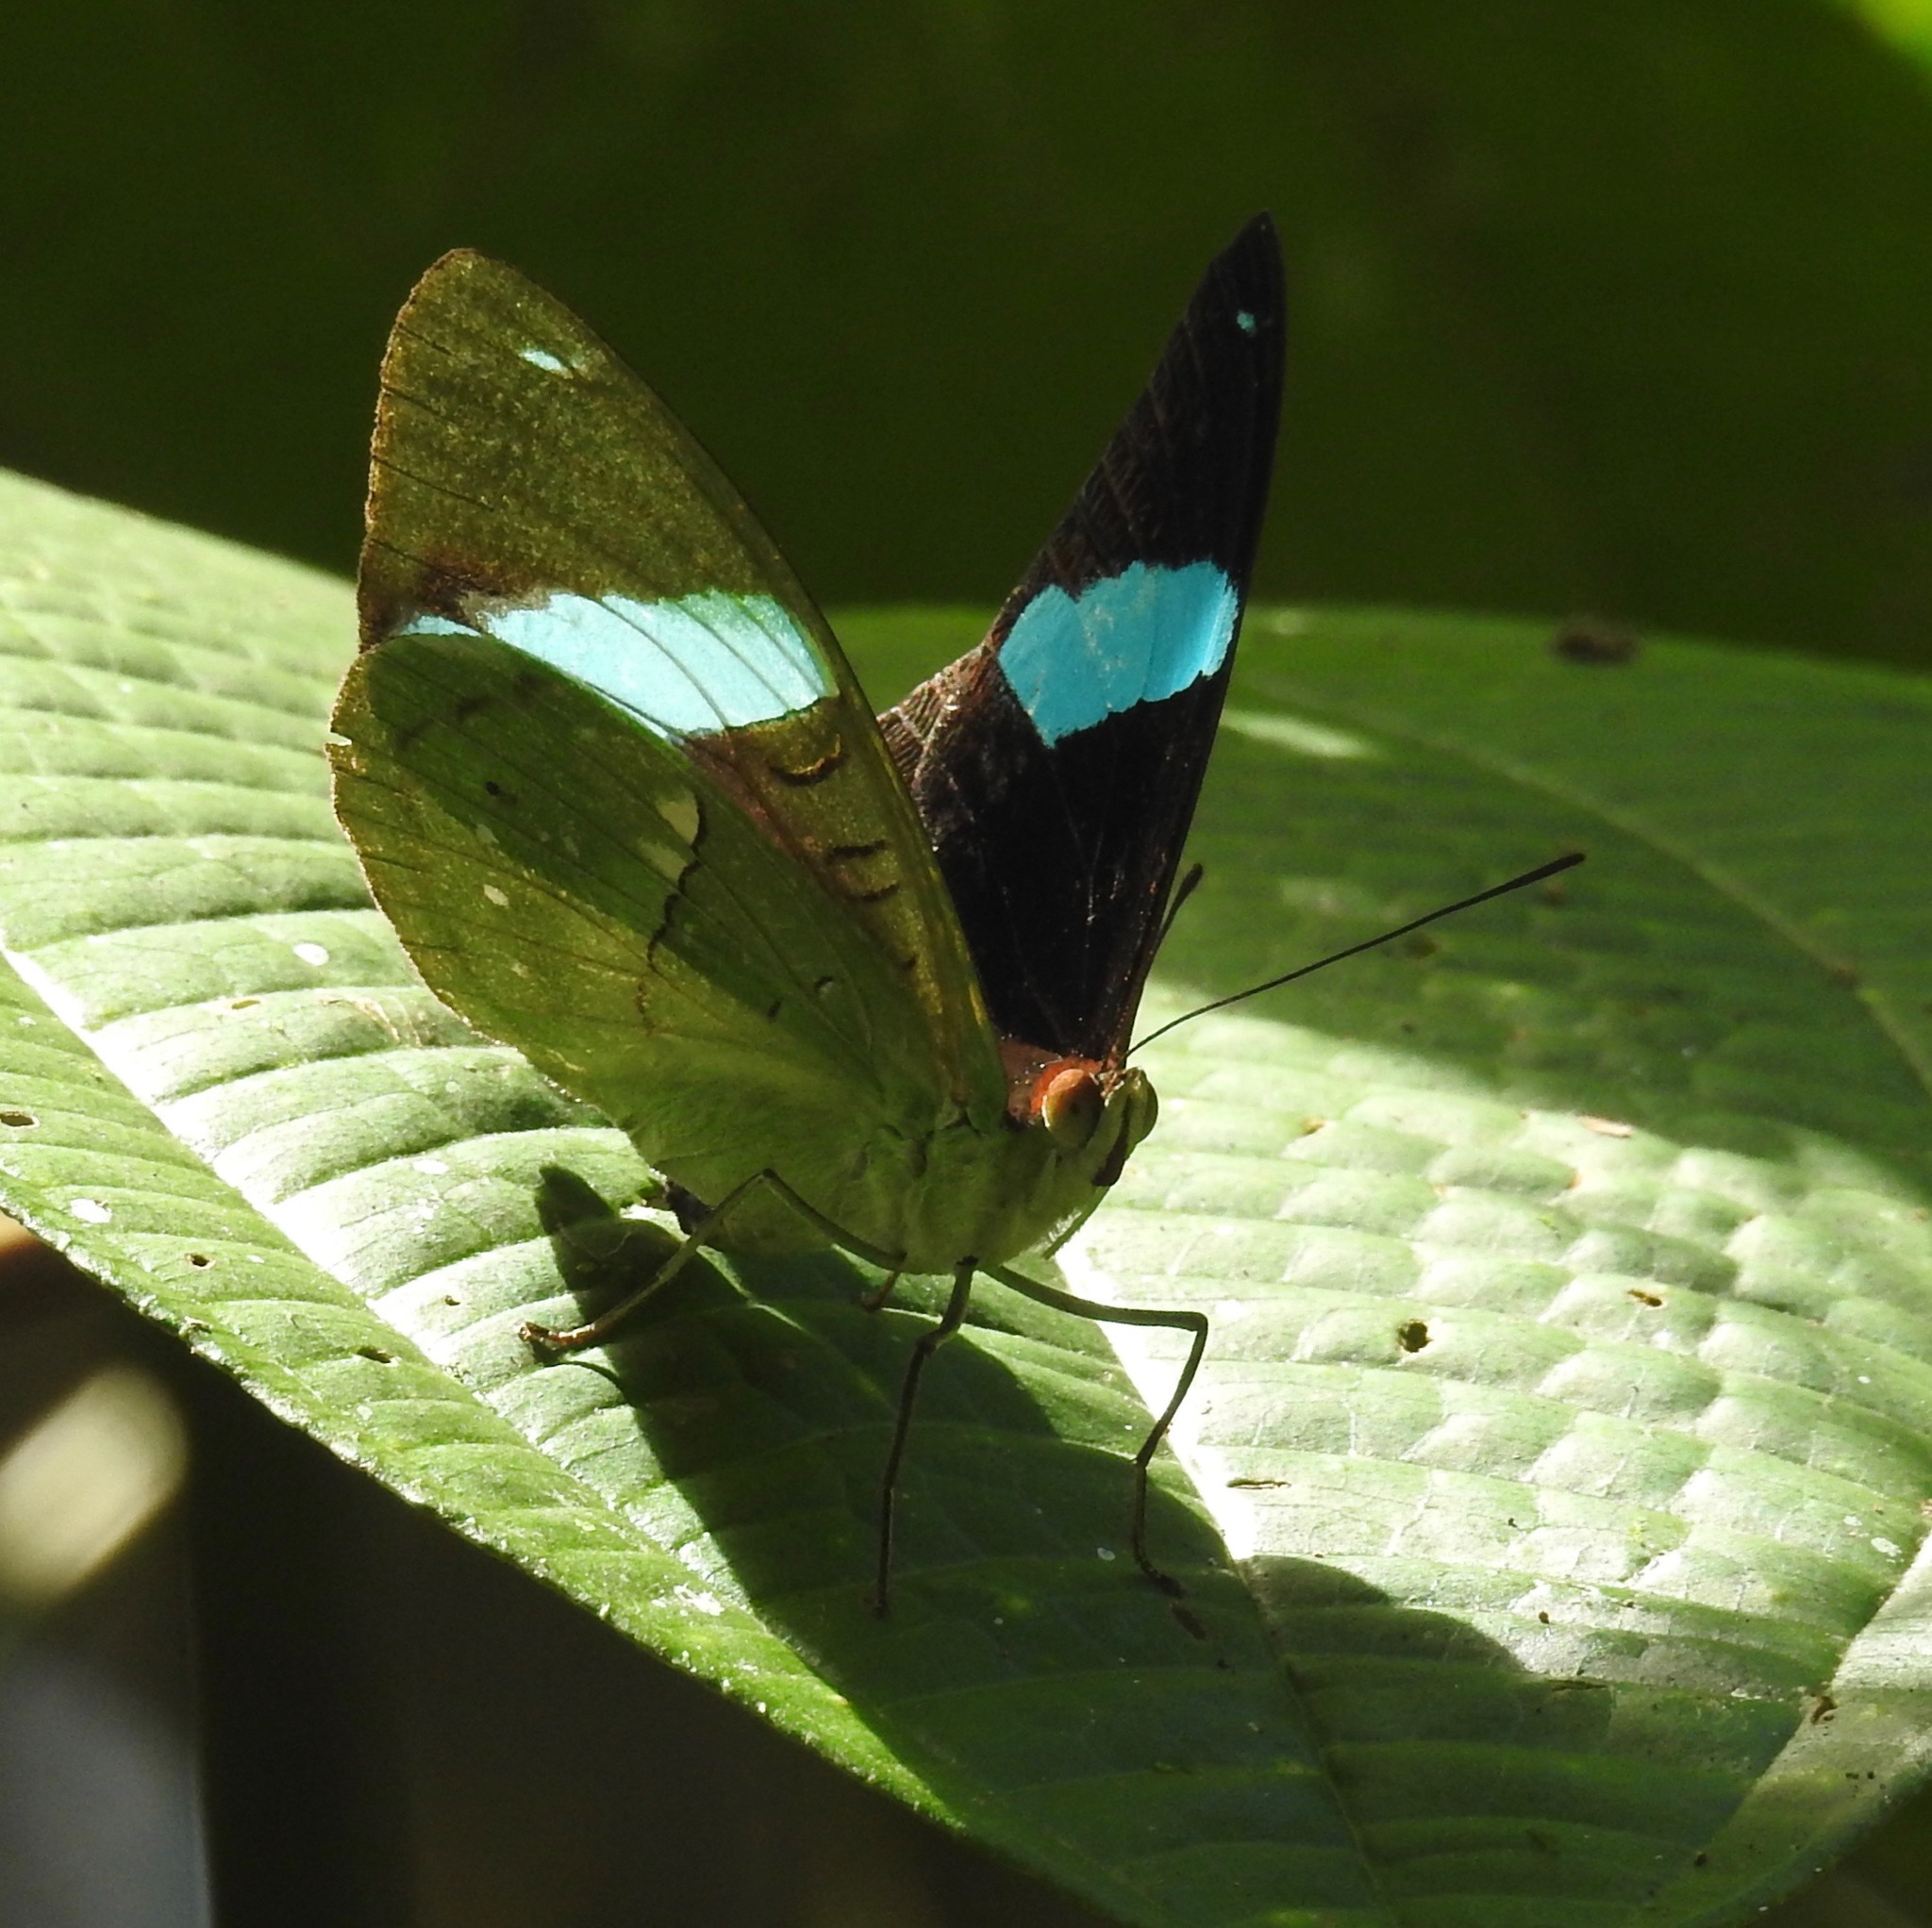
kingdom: Animalia
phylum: Arthropoda
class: Insecta
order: Lepidoptera
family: Nymphalidae
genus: Nessaea
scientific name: Nessaea aglaura
